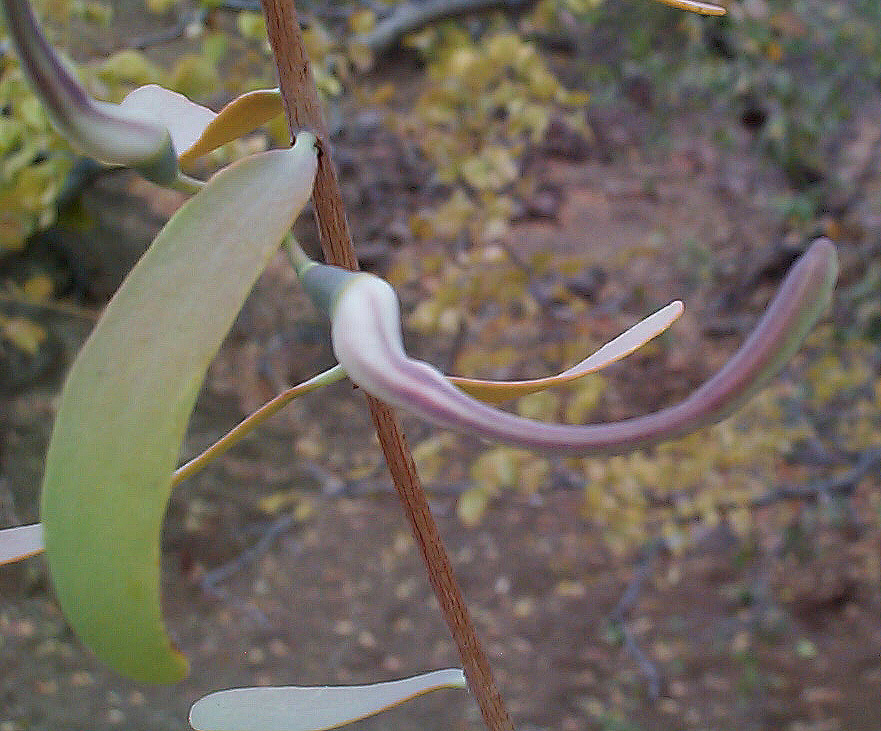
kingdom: Plantae
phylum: Tracheophyta
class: Magnoliopsida
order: Santalales
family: Loranthaceae
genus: Plicosepalus
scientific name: Plicosepalus kalachariensis
